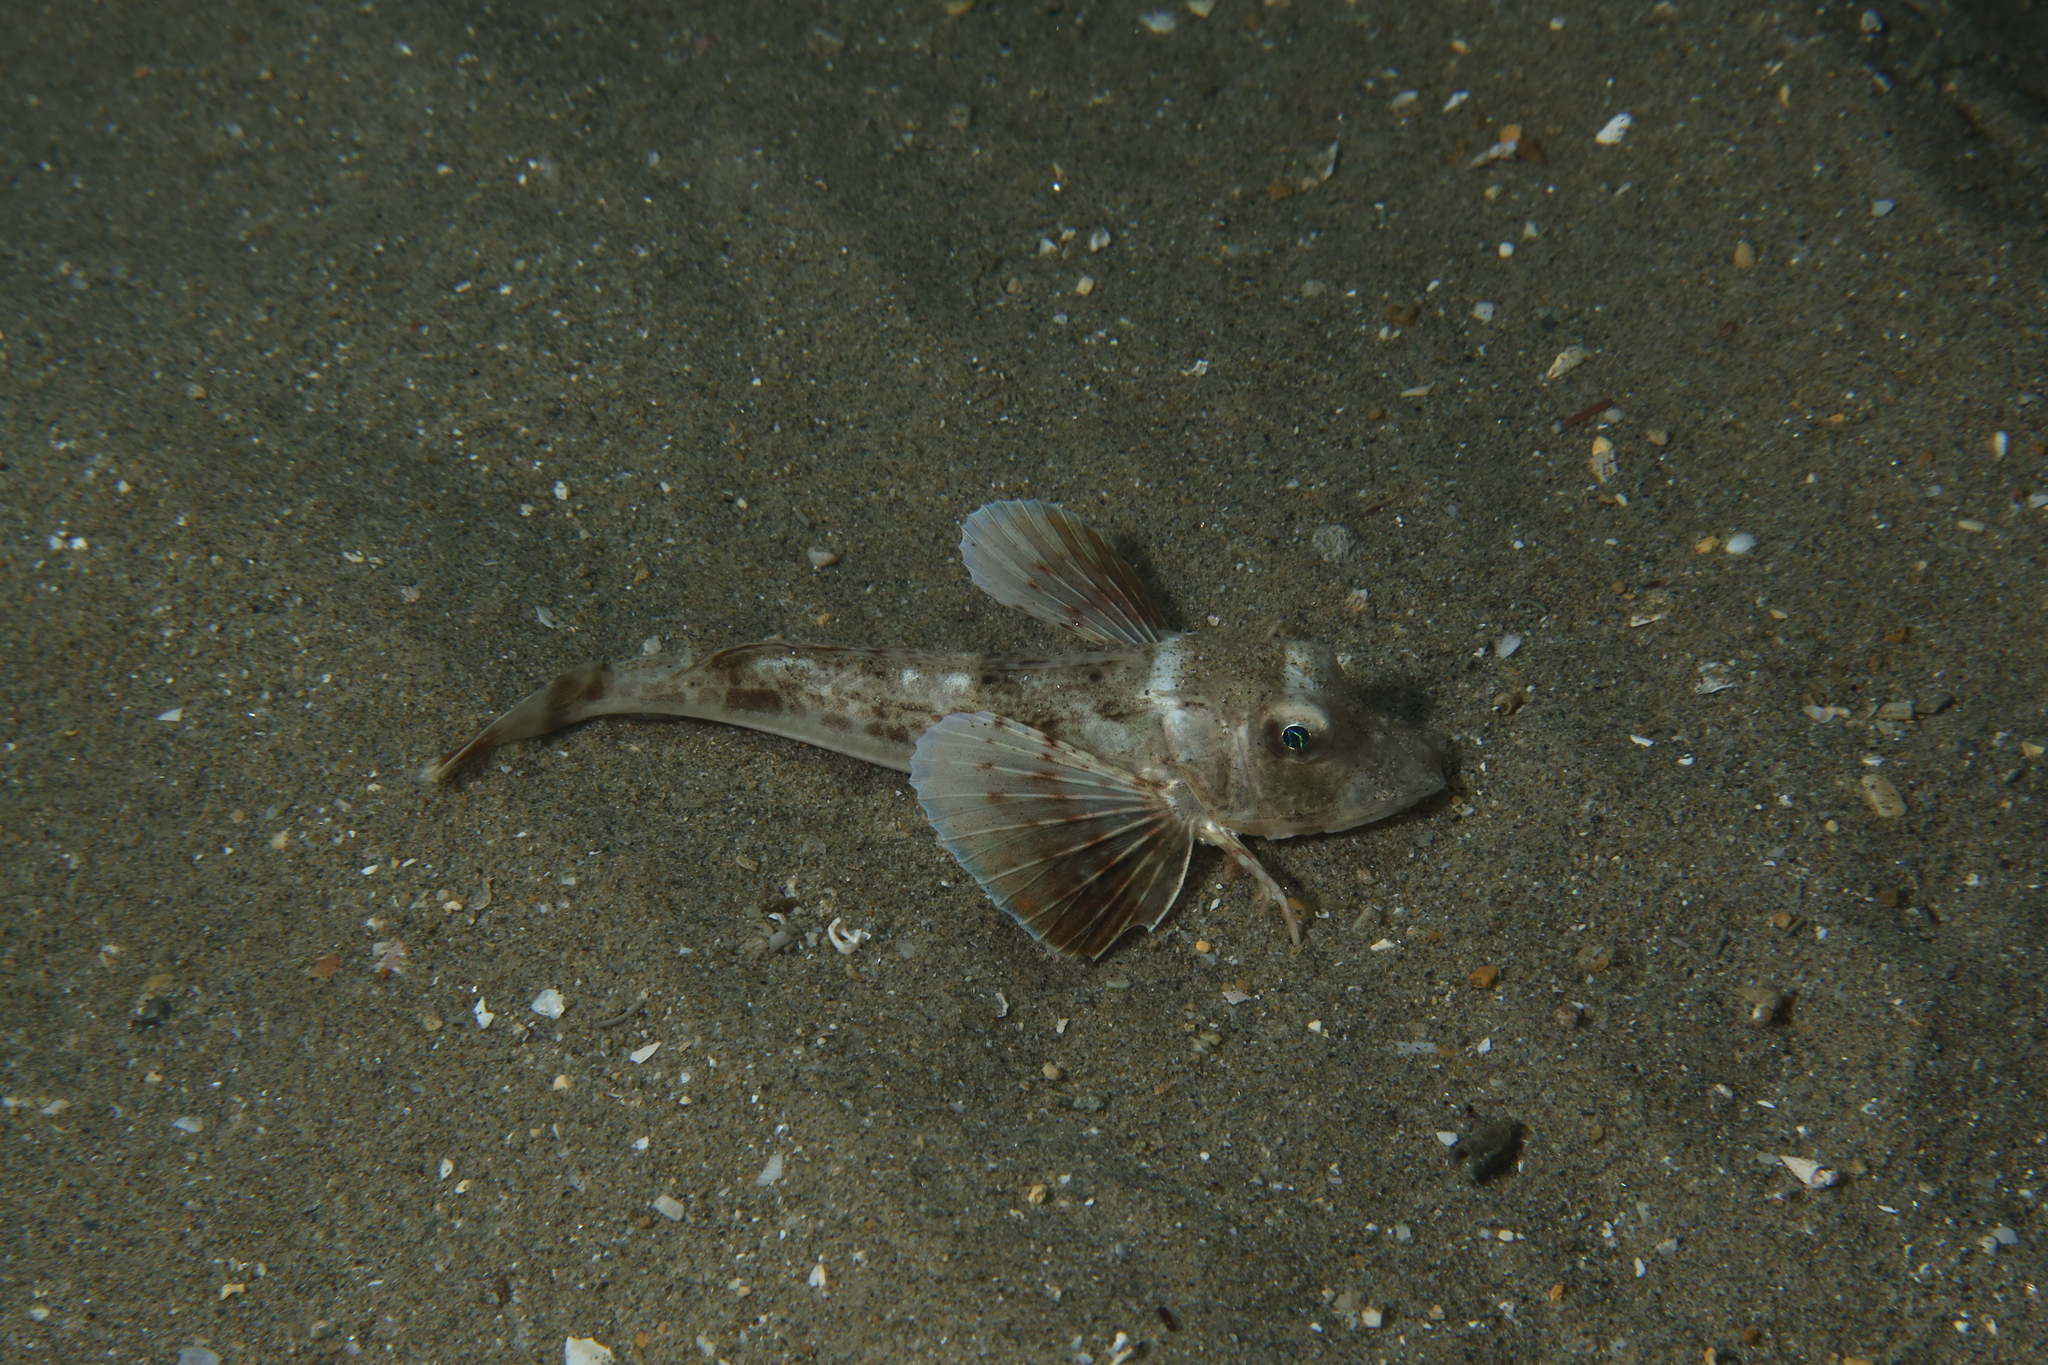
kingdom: Animalia
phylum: Chordata
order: Scorpaeniformes
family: Triglidae
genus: Chelidonichthys
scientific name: Chelidonichthys lucerna
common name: Tub gurnard
